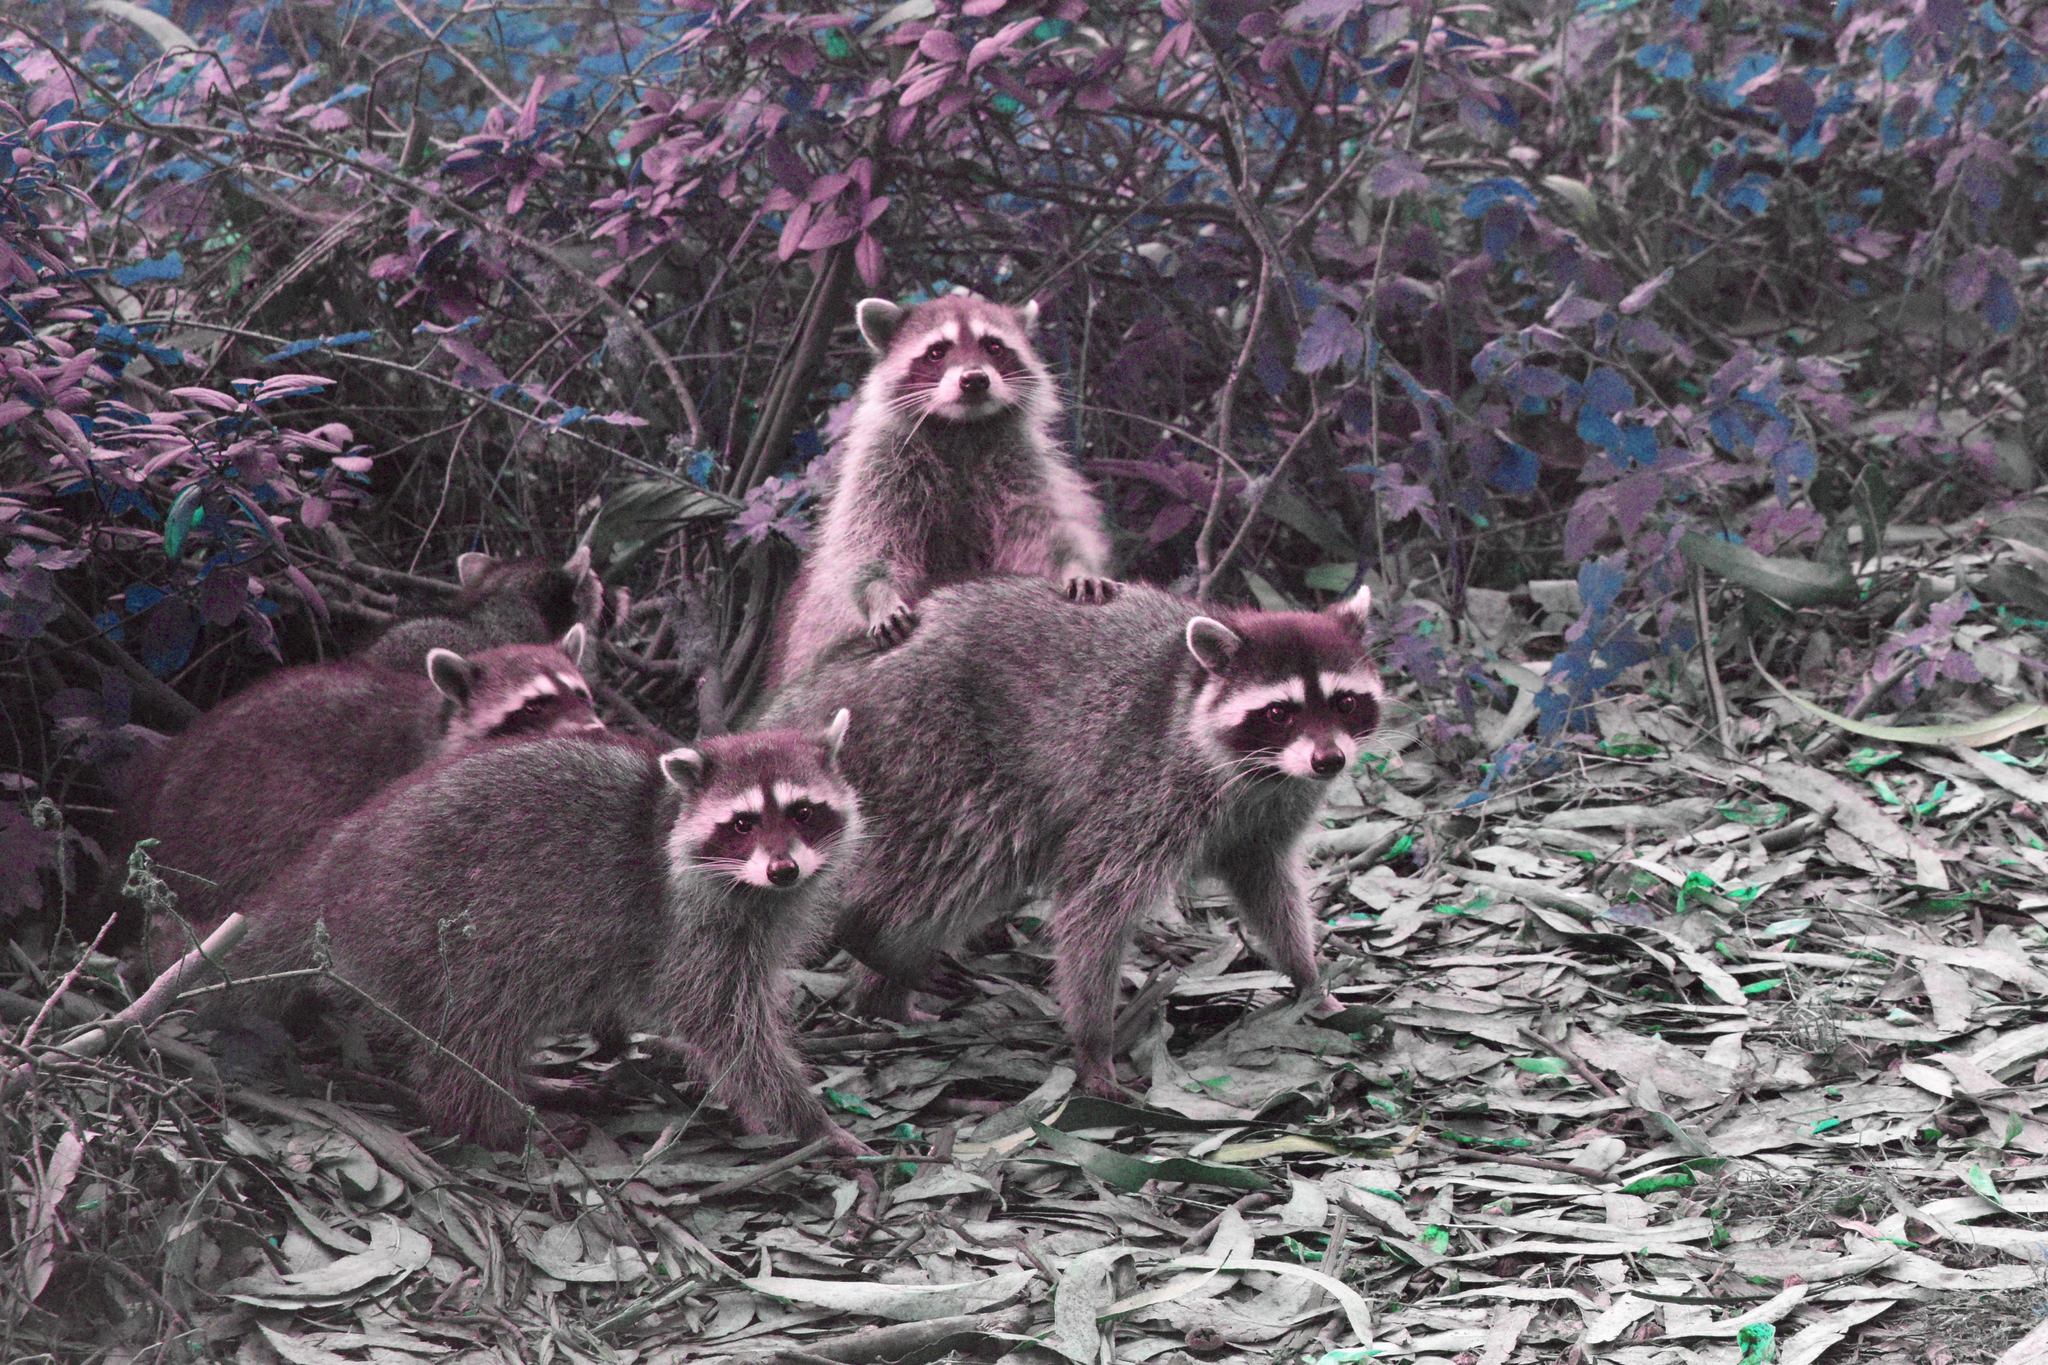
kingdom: Animalia
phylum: Chordata
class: Mammalia
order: Carnivora
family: Procyonidae
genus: Procyon
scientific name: Procyon lotor
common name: Raccoon
